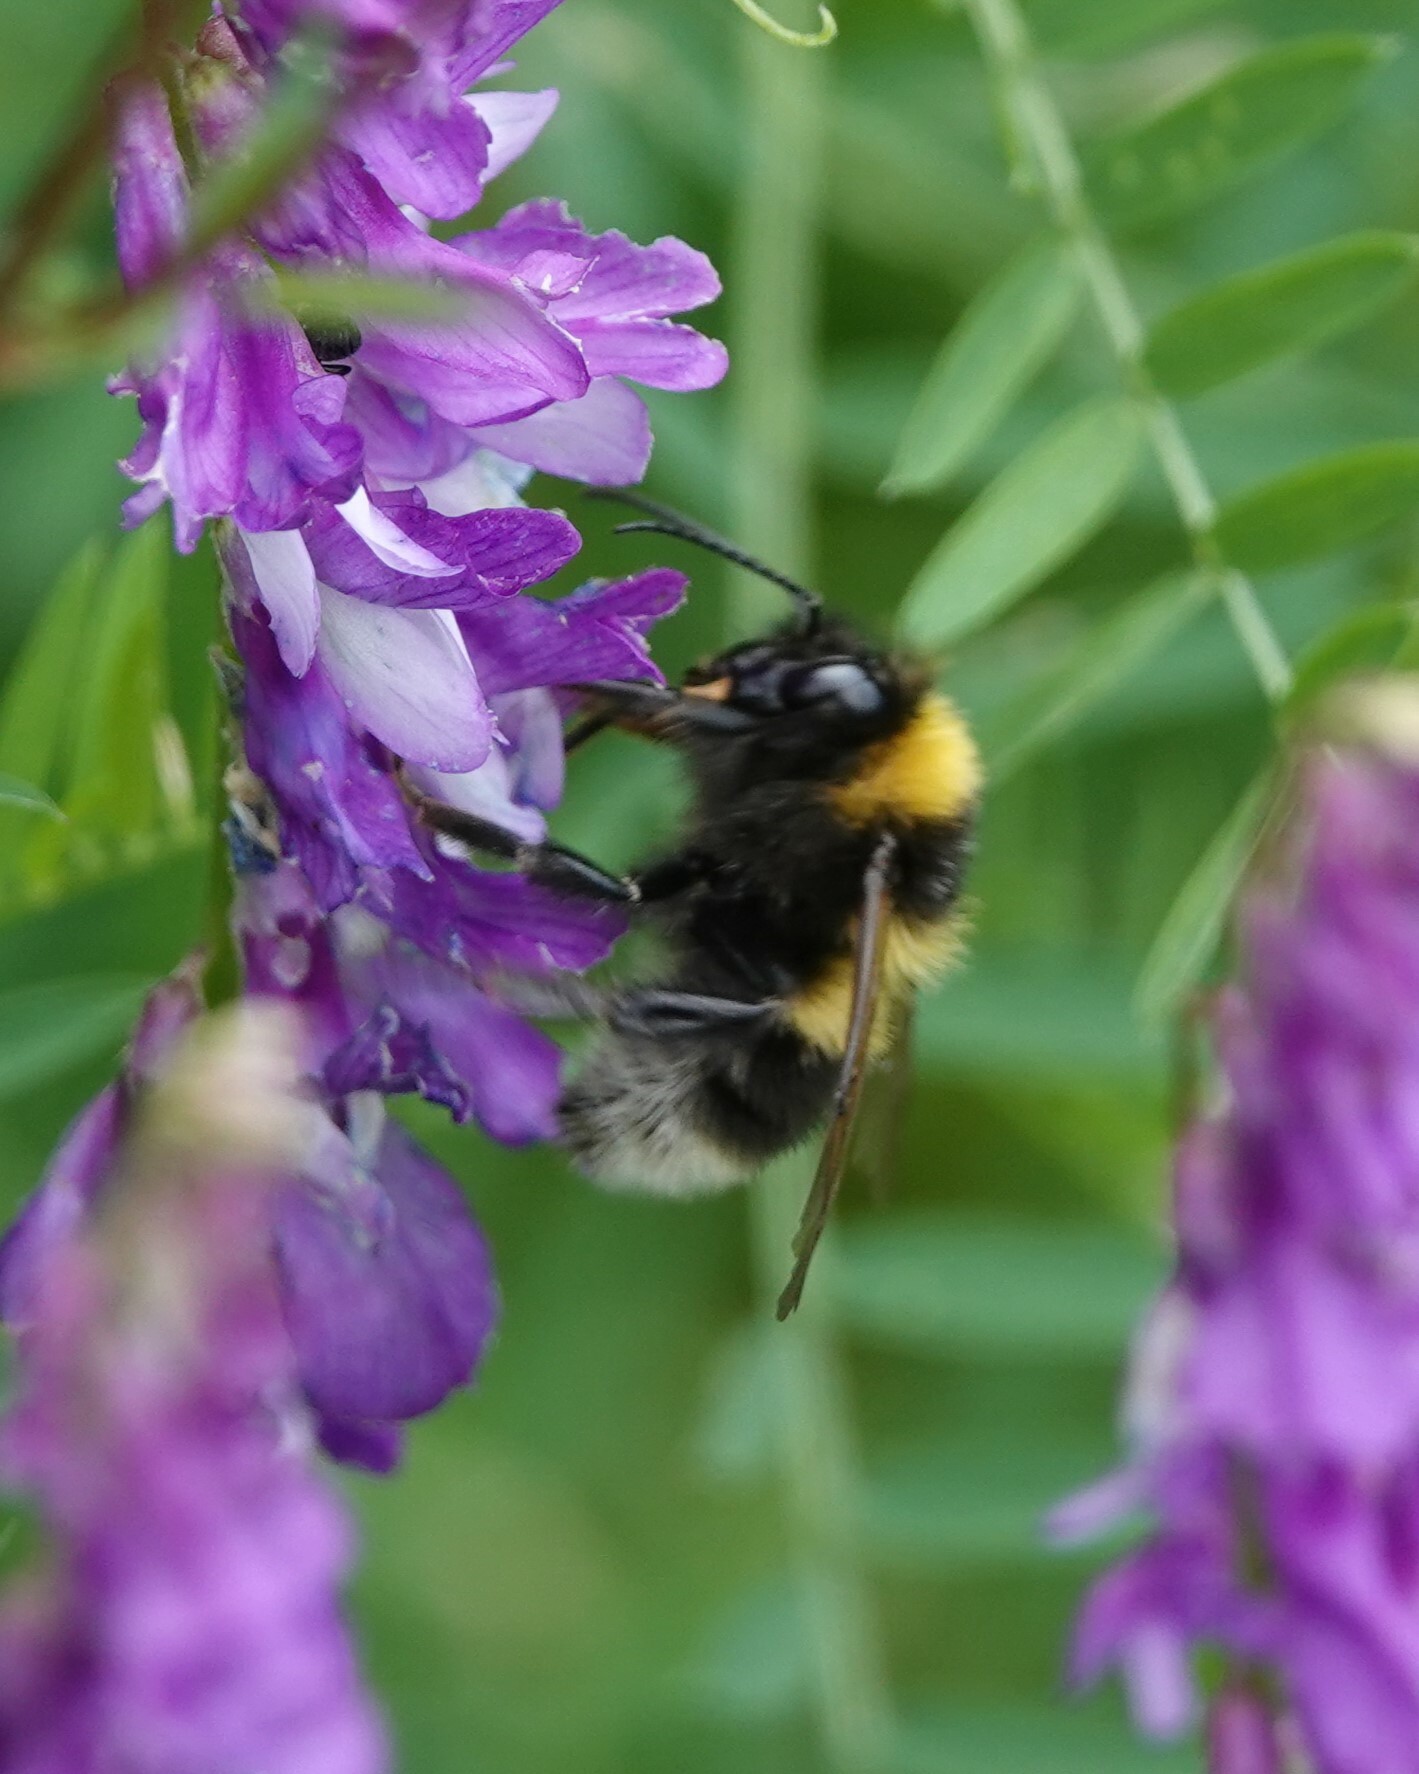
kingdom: Animalia
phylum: Arthropoda
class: Insecta
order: Hymenoptera
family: Apidae
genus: Bombus
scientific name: Bombus hortorum
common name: Garden bumblebee
